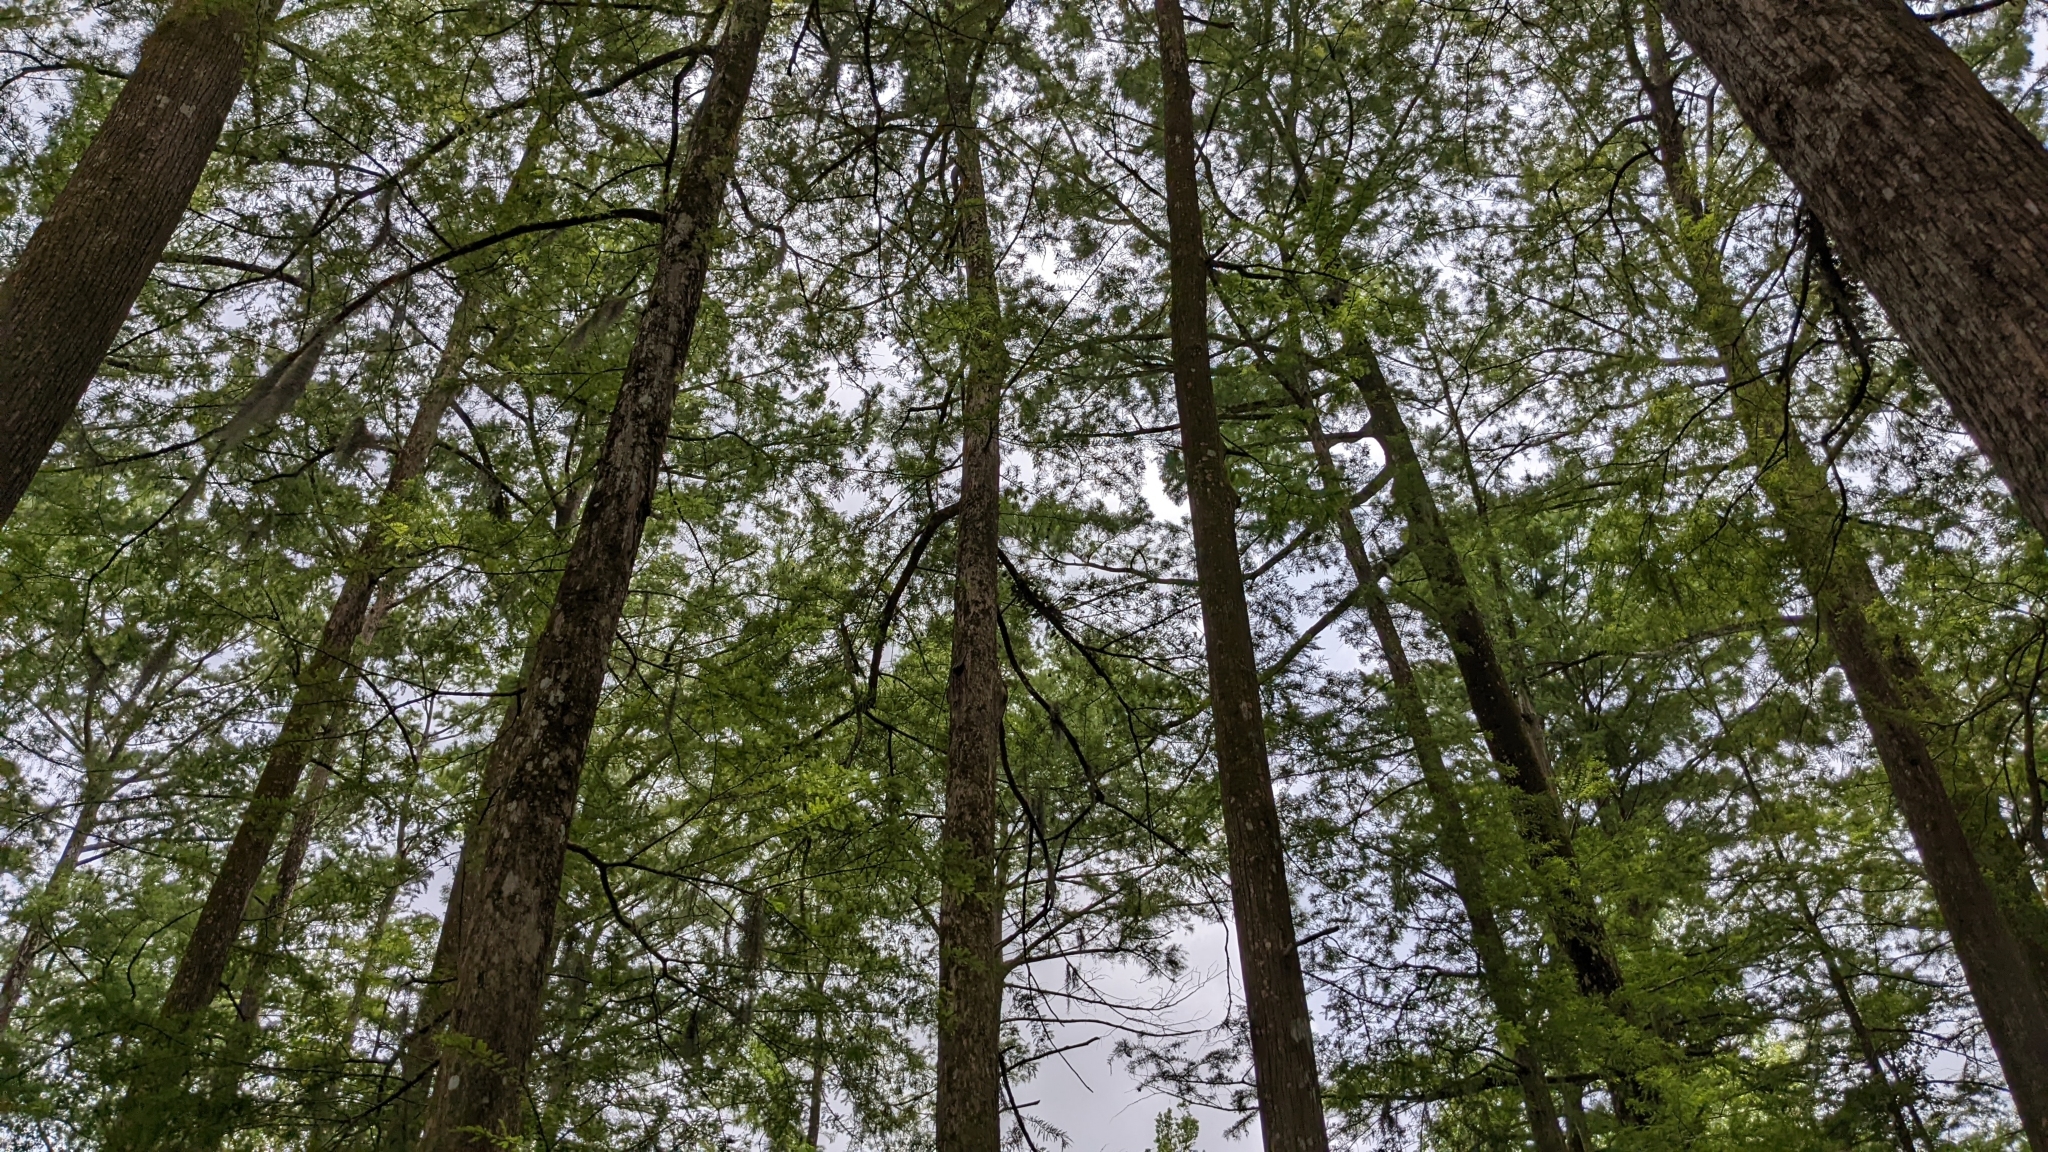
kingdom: Plantae
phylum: Tracheophyta
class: Pinopsida
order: Pinales
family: Cupressaceae
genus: Taxodium
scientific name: Taxodium distichum
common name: Bald cypress
